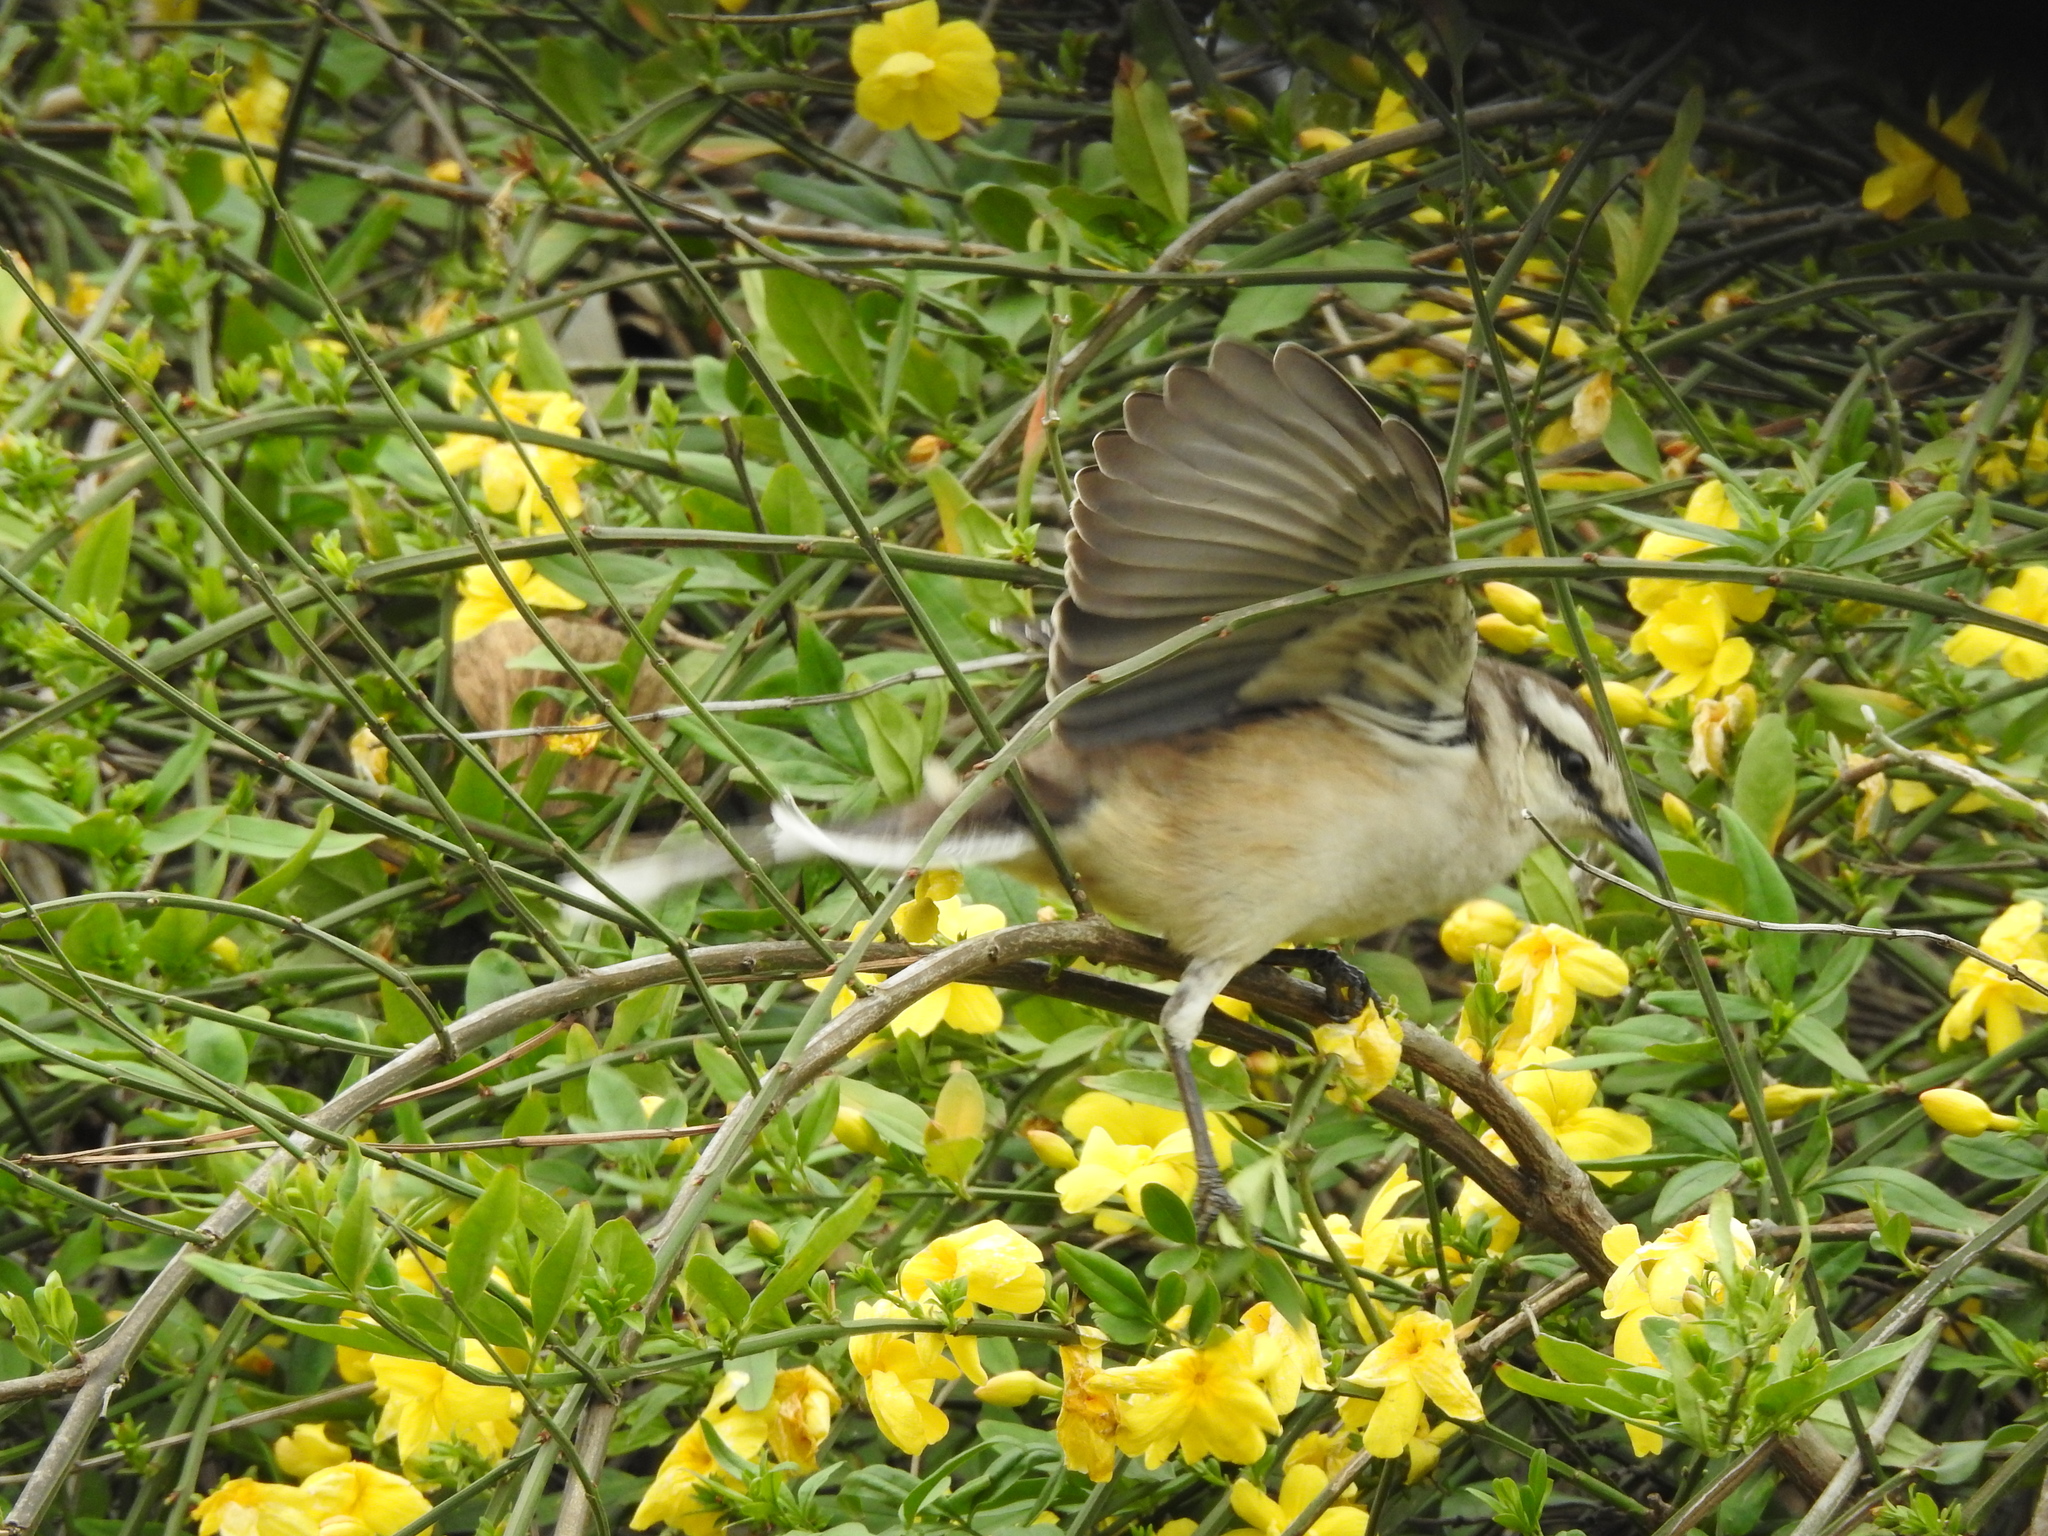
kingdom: Animalia
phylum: Chordata
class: Aves
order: Cuculiformes
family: Cuculidae
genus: Guira
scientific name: Guira guira
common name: Guira cuckoo
